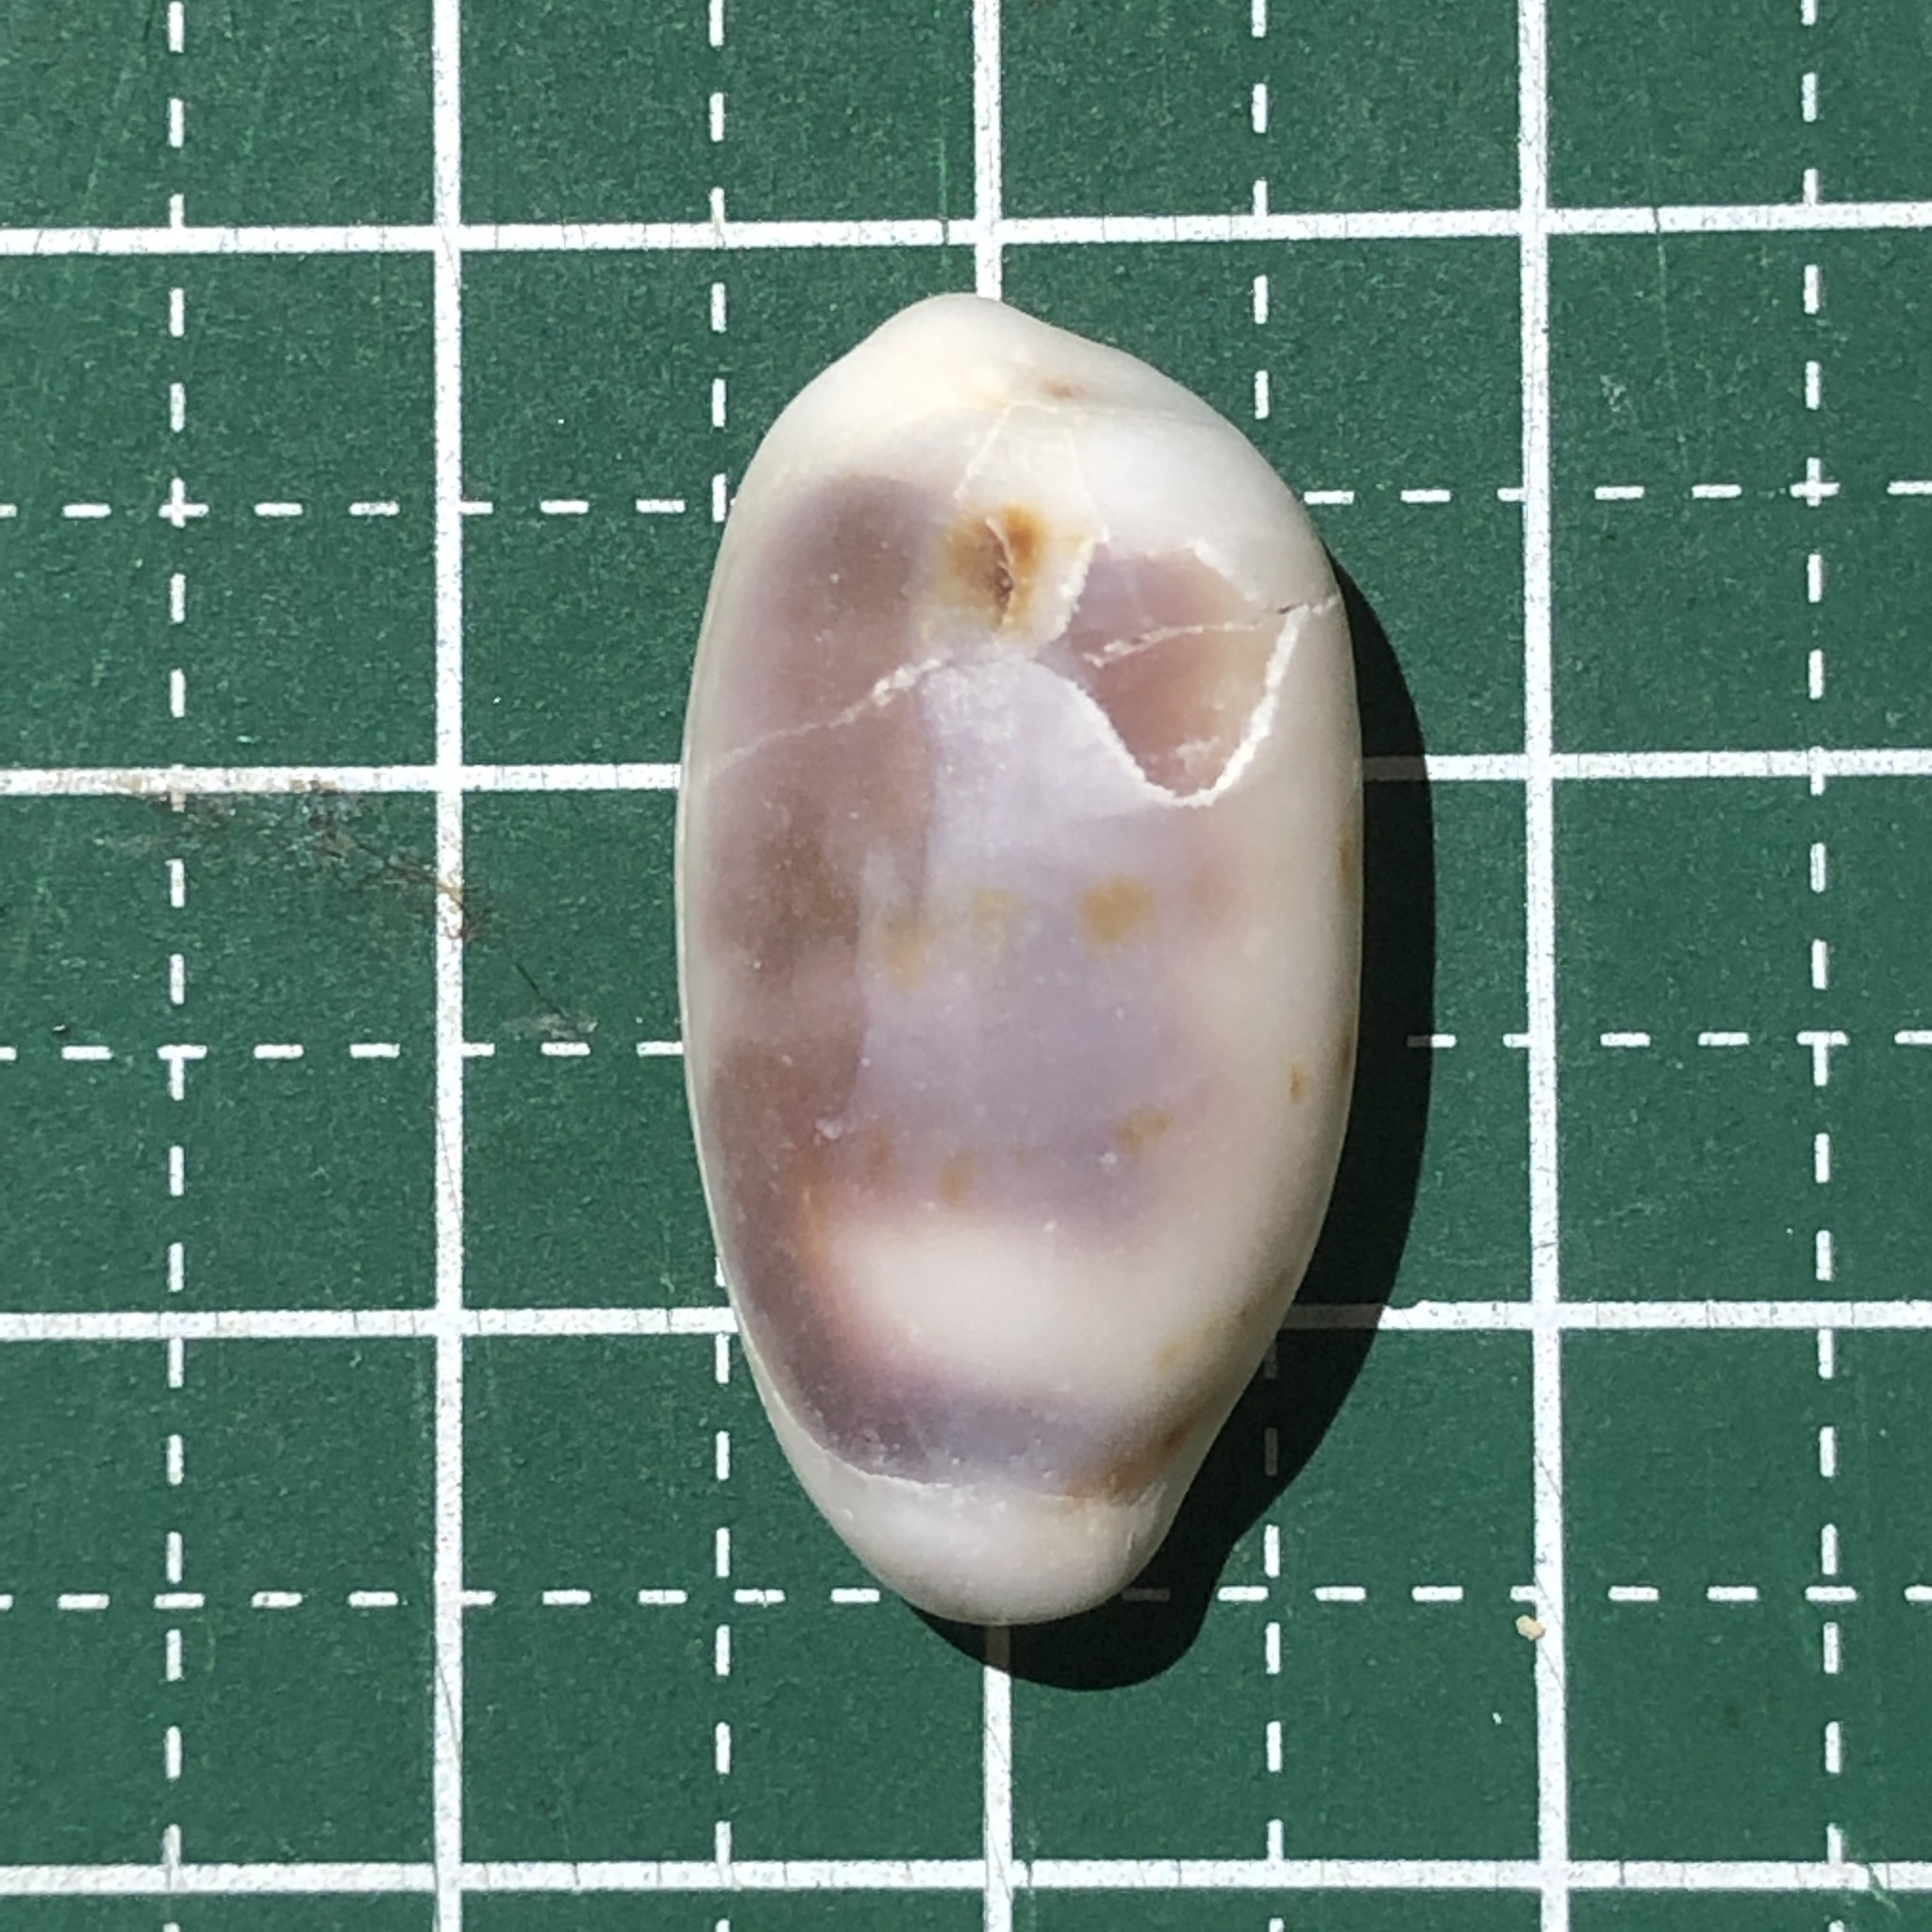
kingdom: Animalia
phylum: Mollusca
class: Gastropoda
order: Littorinimorpha
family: Cypraeidae
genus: Blasicrura
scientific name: Blasicrura pallidula
